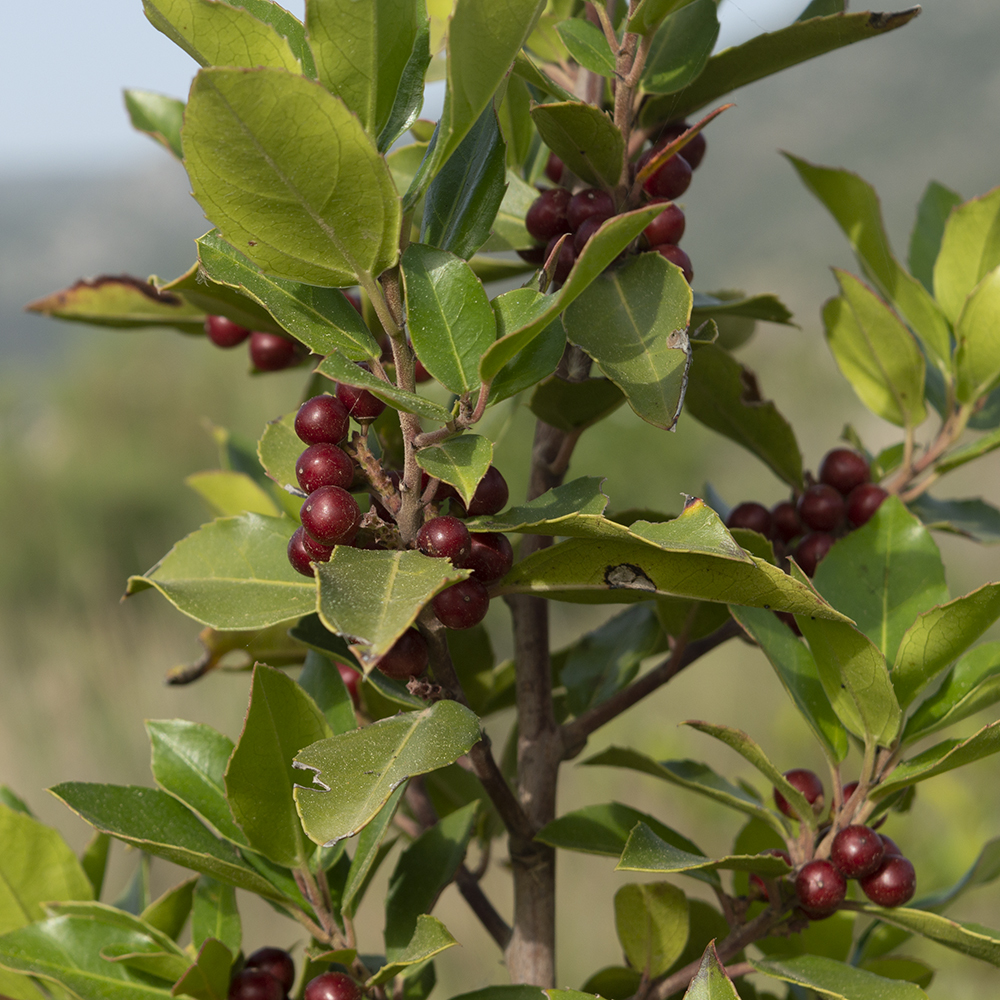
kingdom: Plantae
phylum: Tracheophyta
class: Magnoliopsida
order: Rosales
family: Rhamnaceae
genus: Rhamnus
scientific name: Rhamnus alaternus
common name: Mediterranean buckthorn
